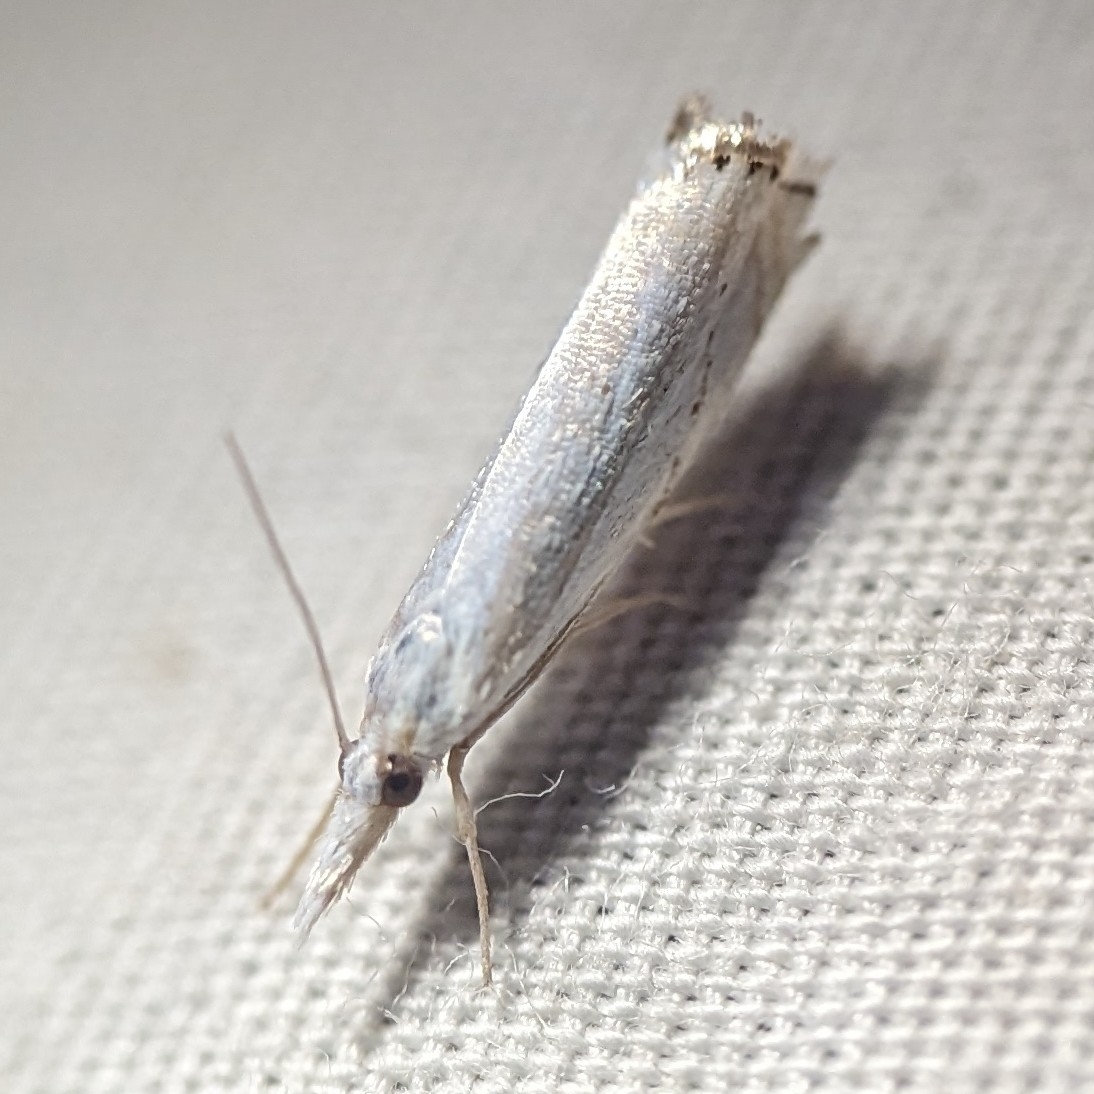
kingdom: Animalia
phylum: Arthropoda
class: Insecta
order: Lepidoptera
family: Crambidae
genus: Crambus
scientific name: Crambus albellus
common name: Small white grass-veneer
